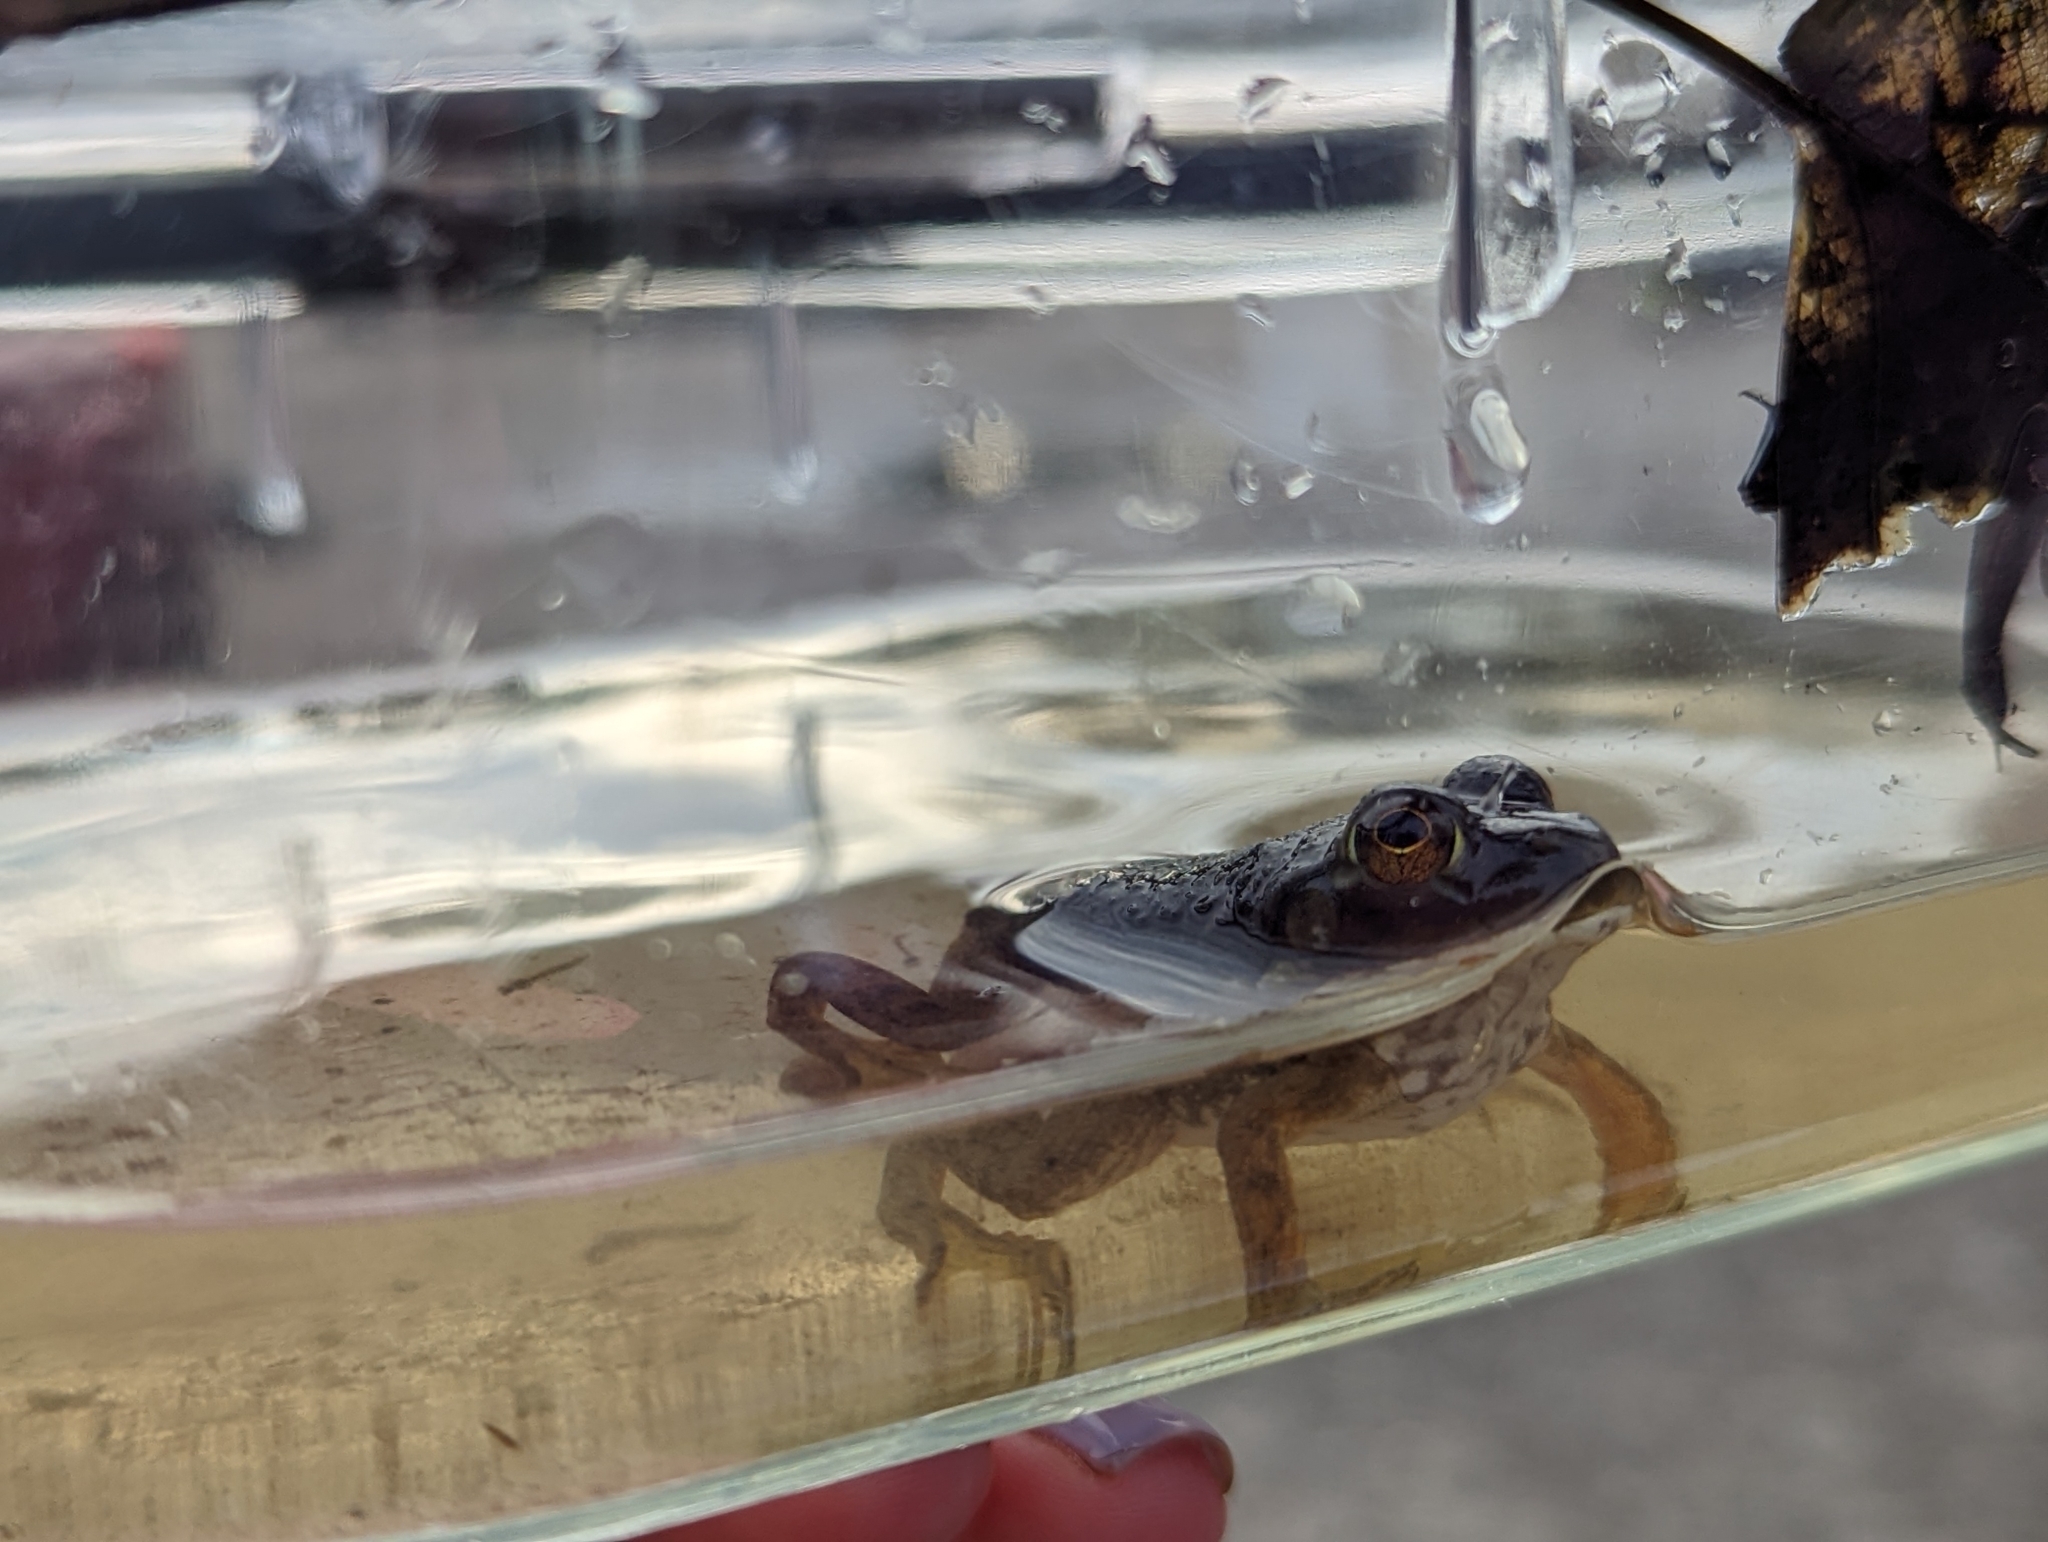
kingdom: Animalia
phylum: Chordata
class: Amphibia
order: Anura
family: Ranidae
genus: Lithobates
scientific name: Lithobates catesbeianus
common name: American bullfrog
